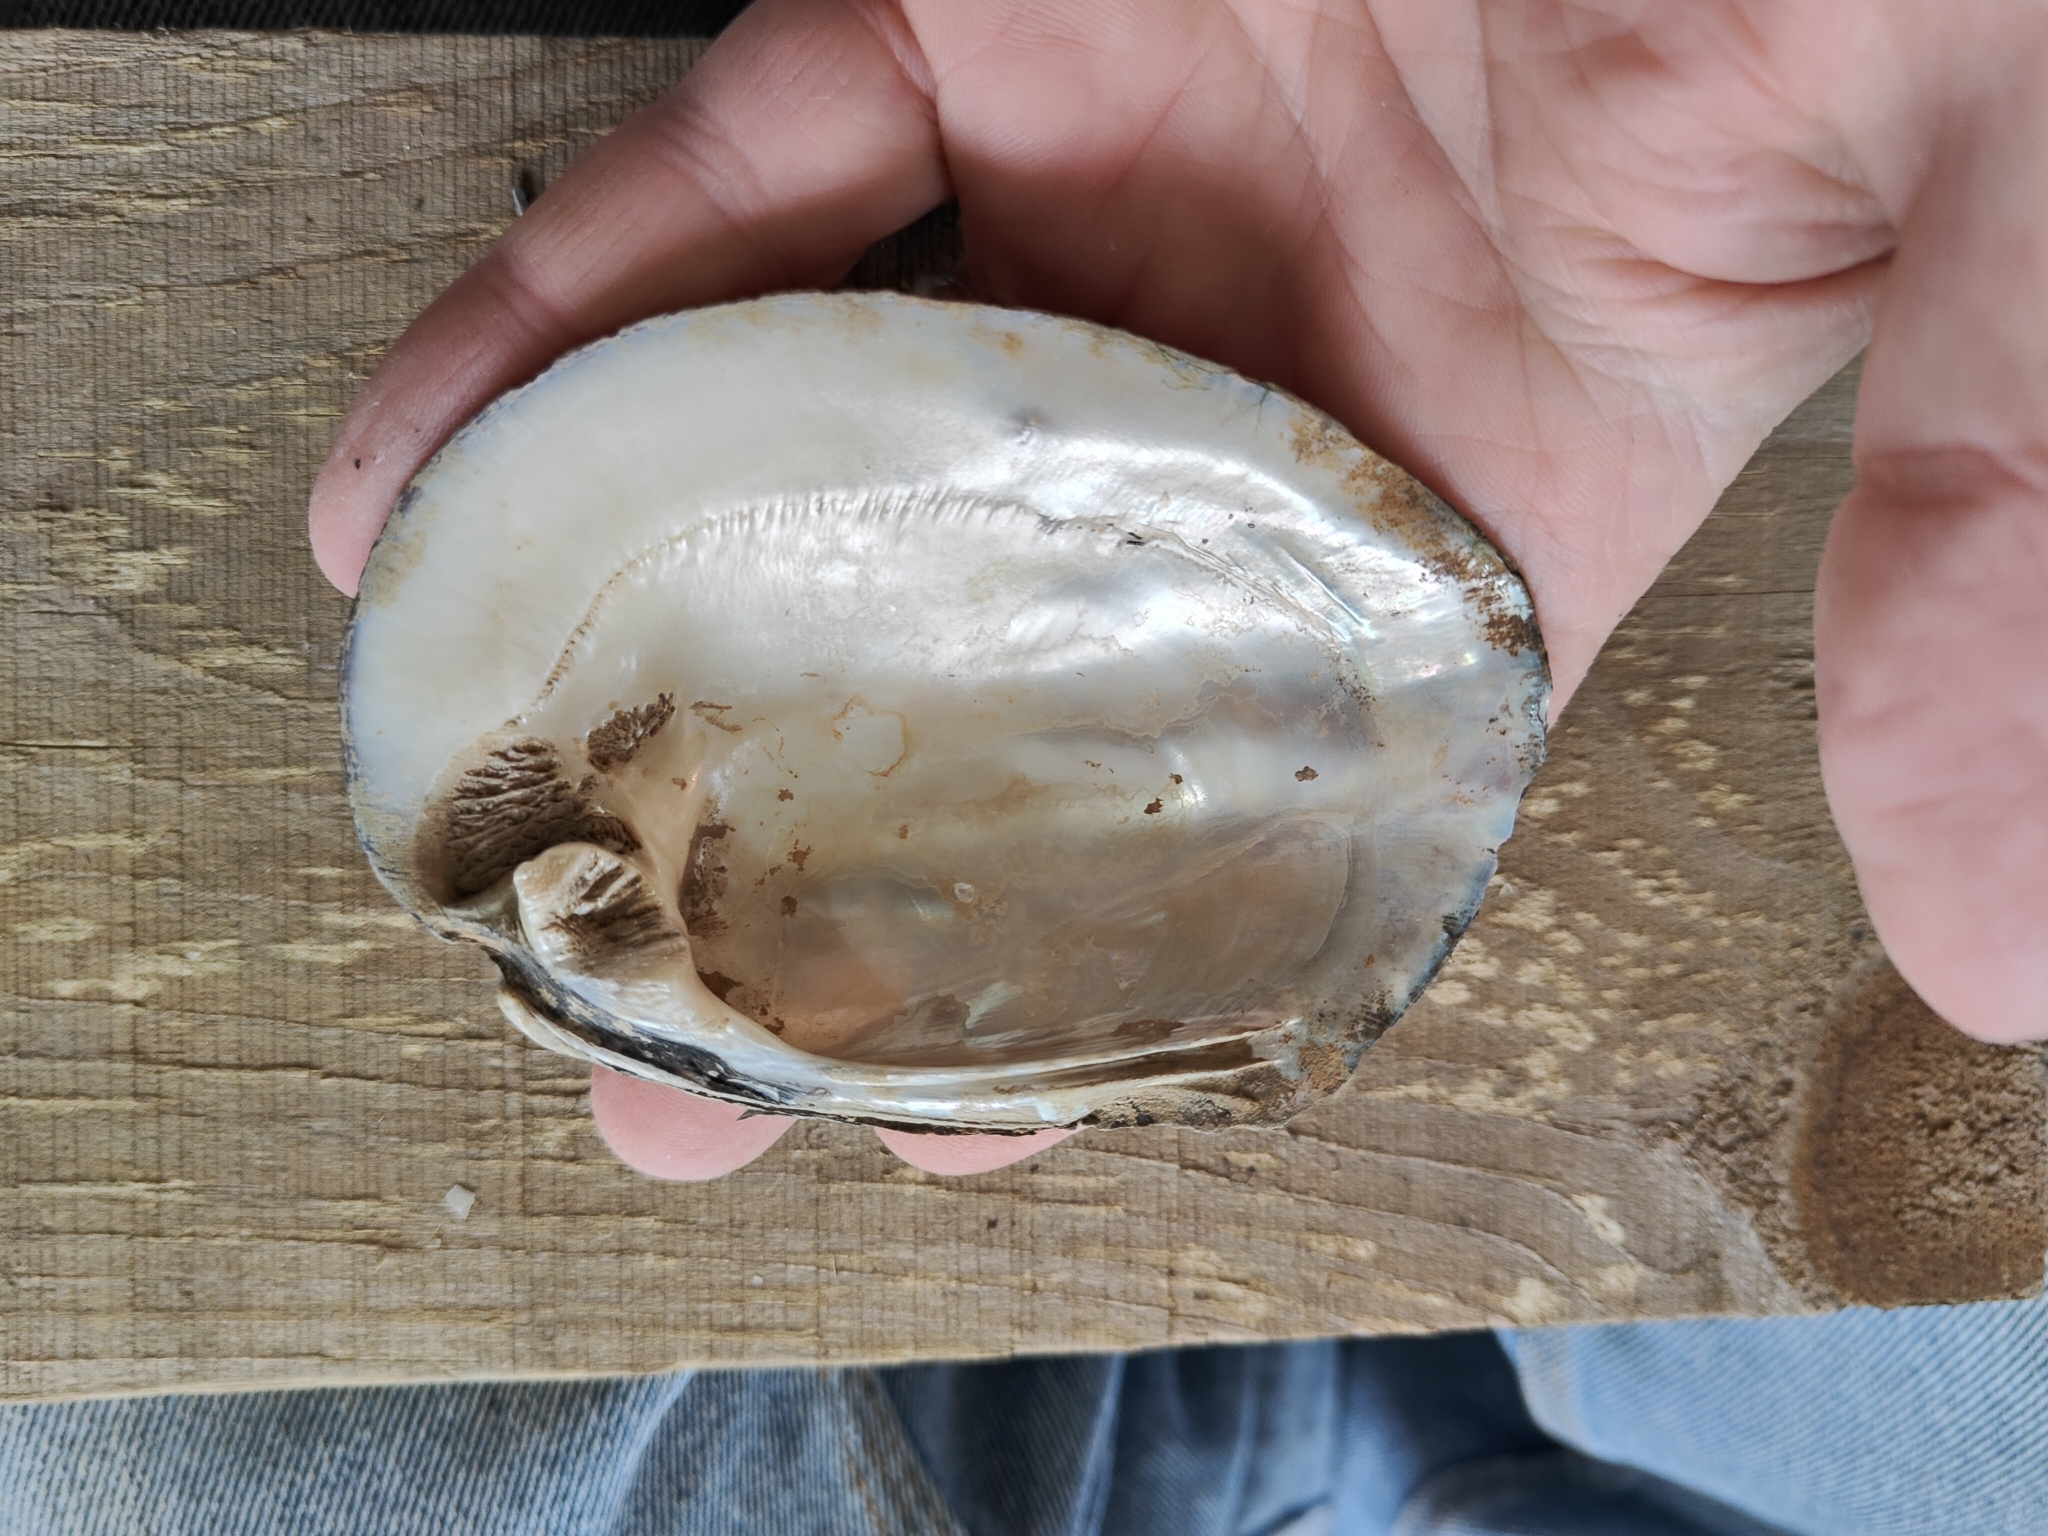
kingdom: Animalia
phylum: Mollusca
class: Bivalvia
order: Unionida
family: Unionidae
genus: Amblema
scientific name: Amblema plicata
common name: Threeridge
